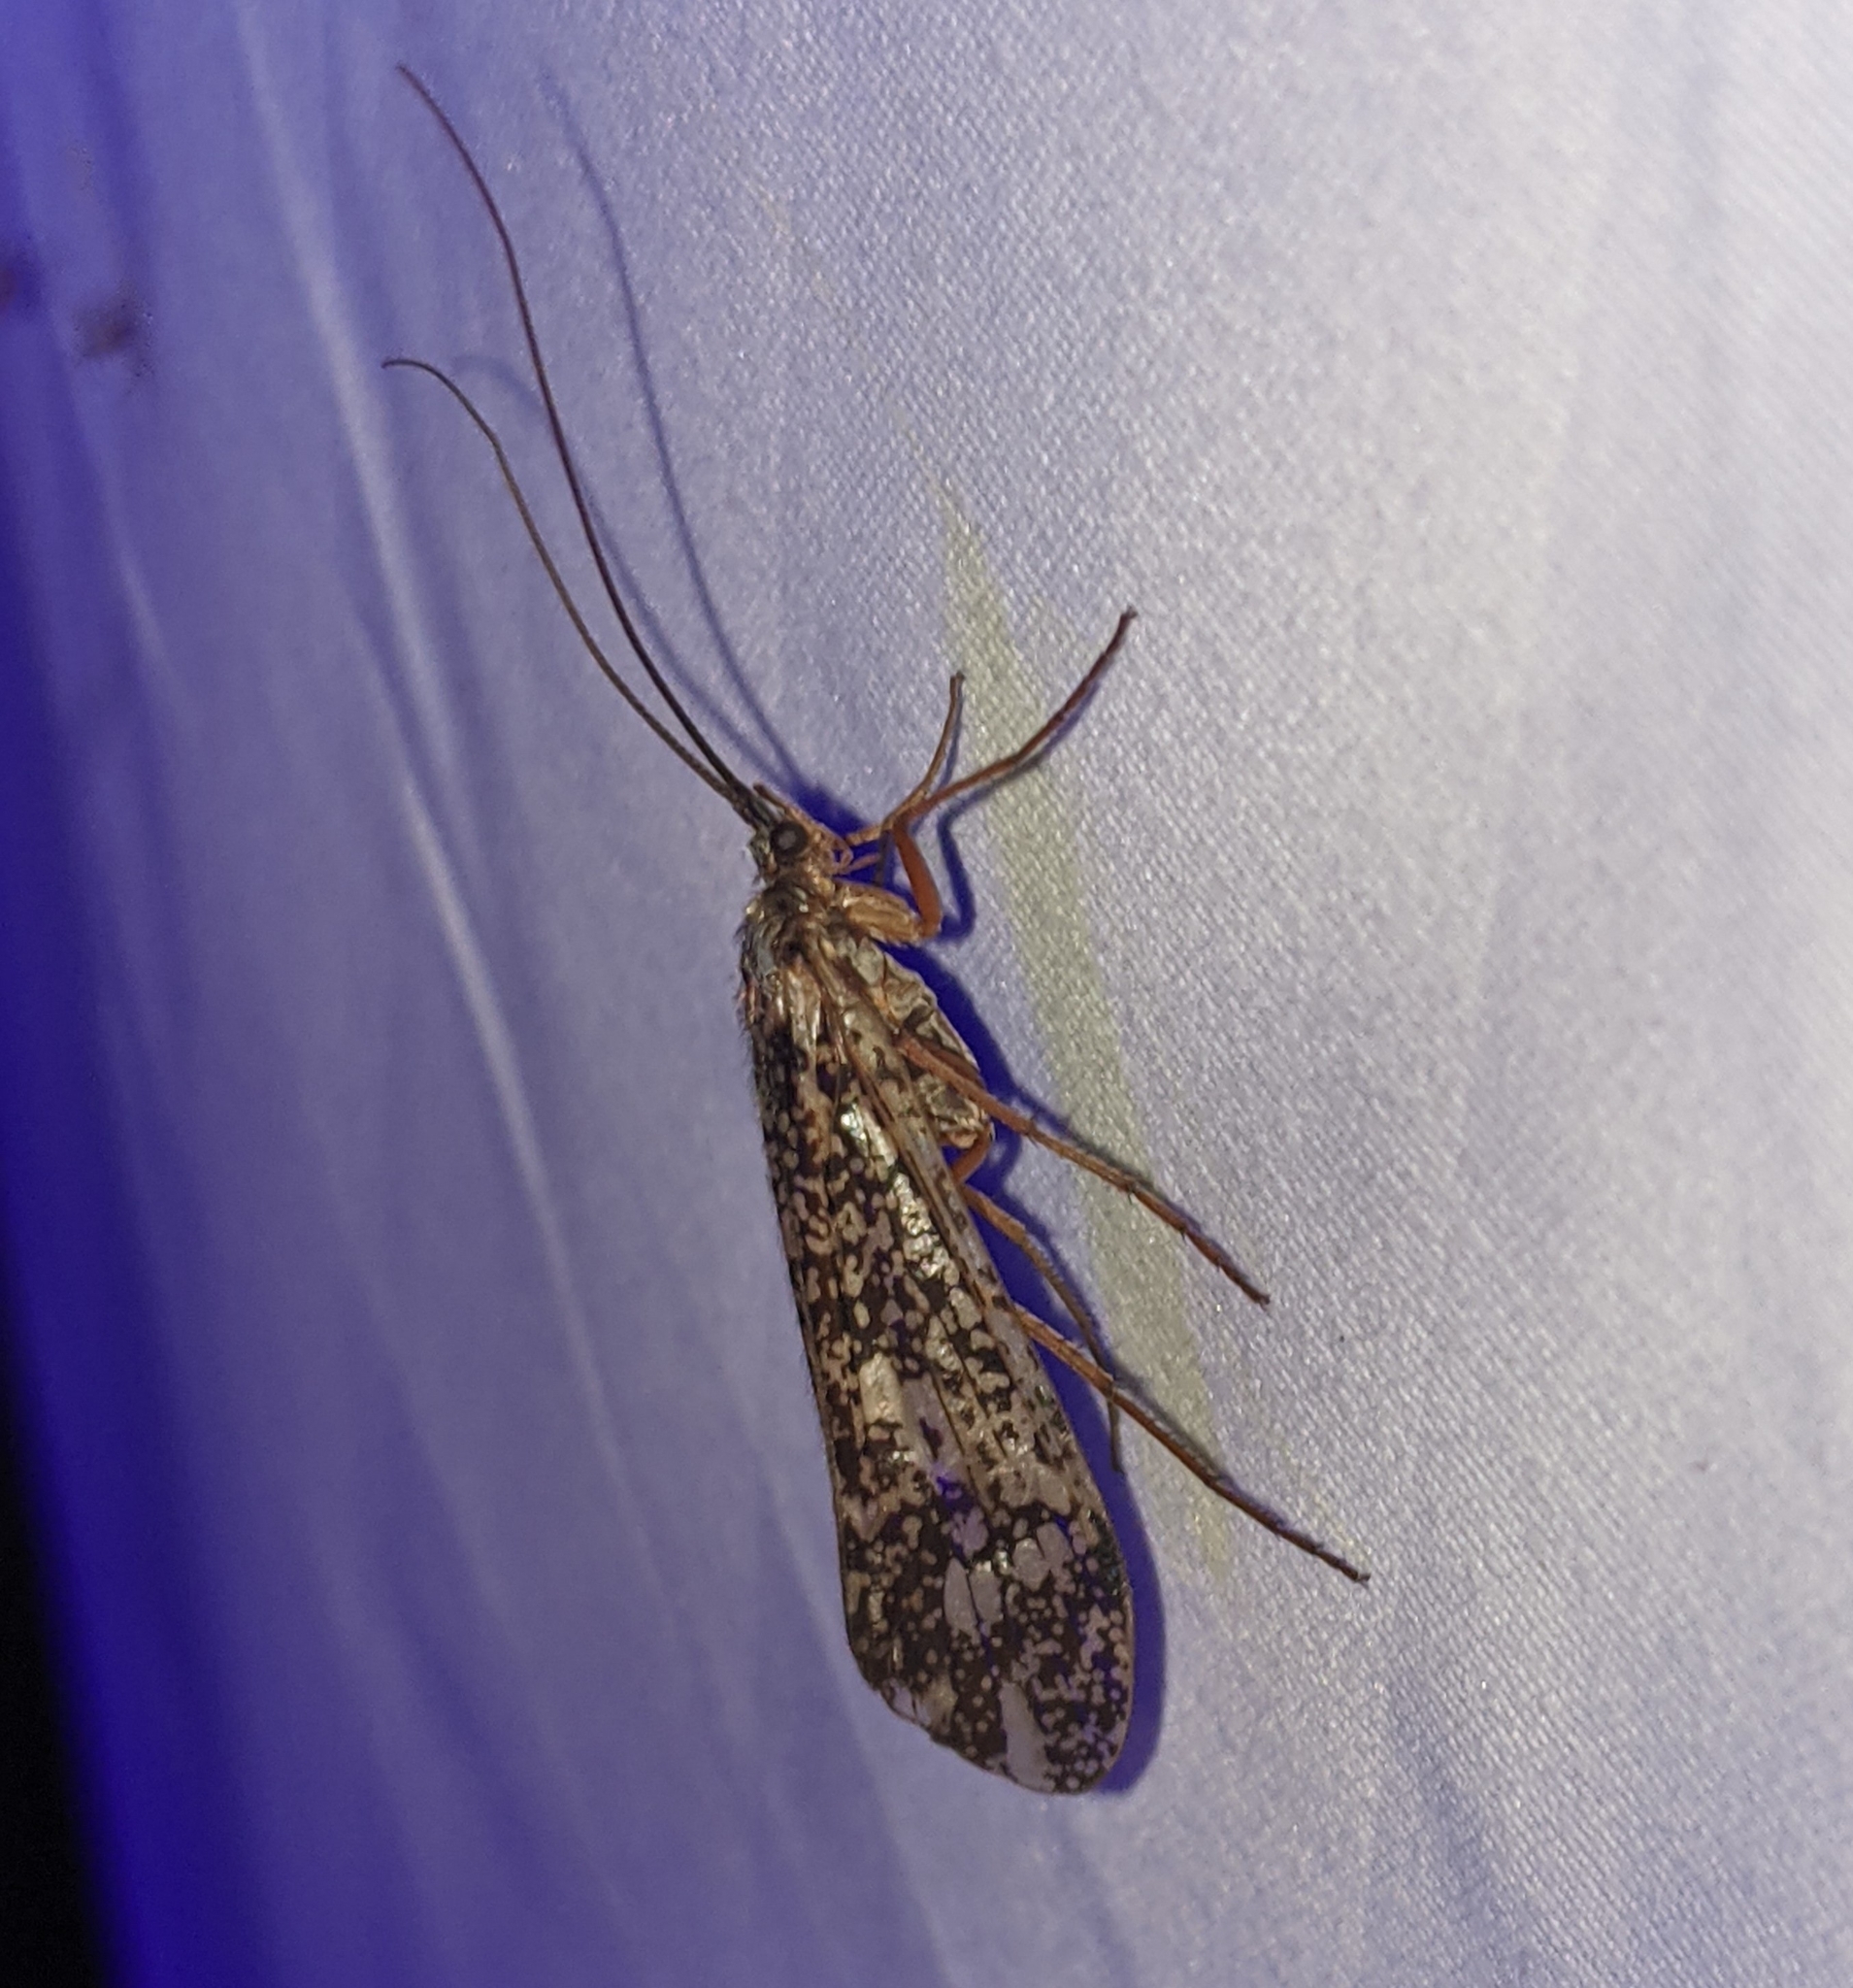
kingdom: Animalia
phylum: Arthropoda
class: Insecta
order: Trichoptera
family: Limnephilidae
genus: Clistoronia
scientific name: Clistoronia magnifica
